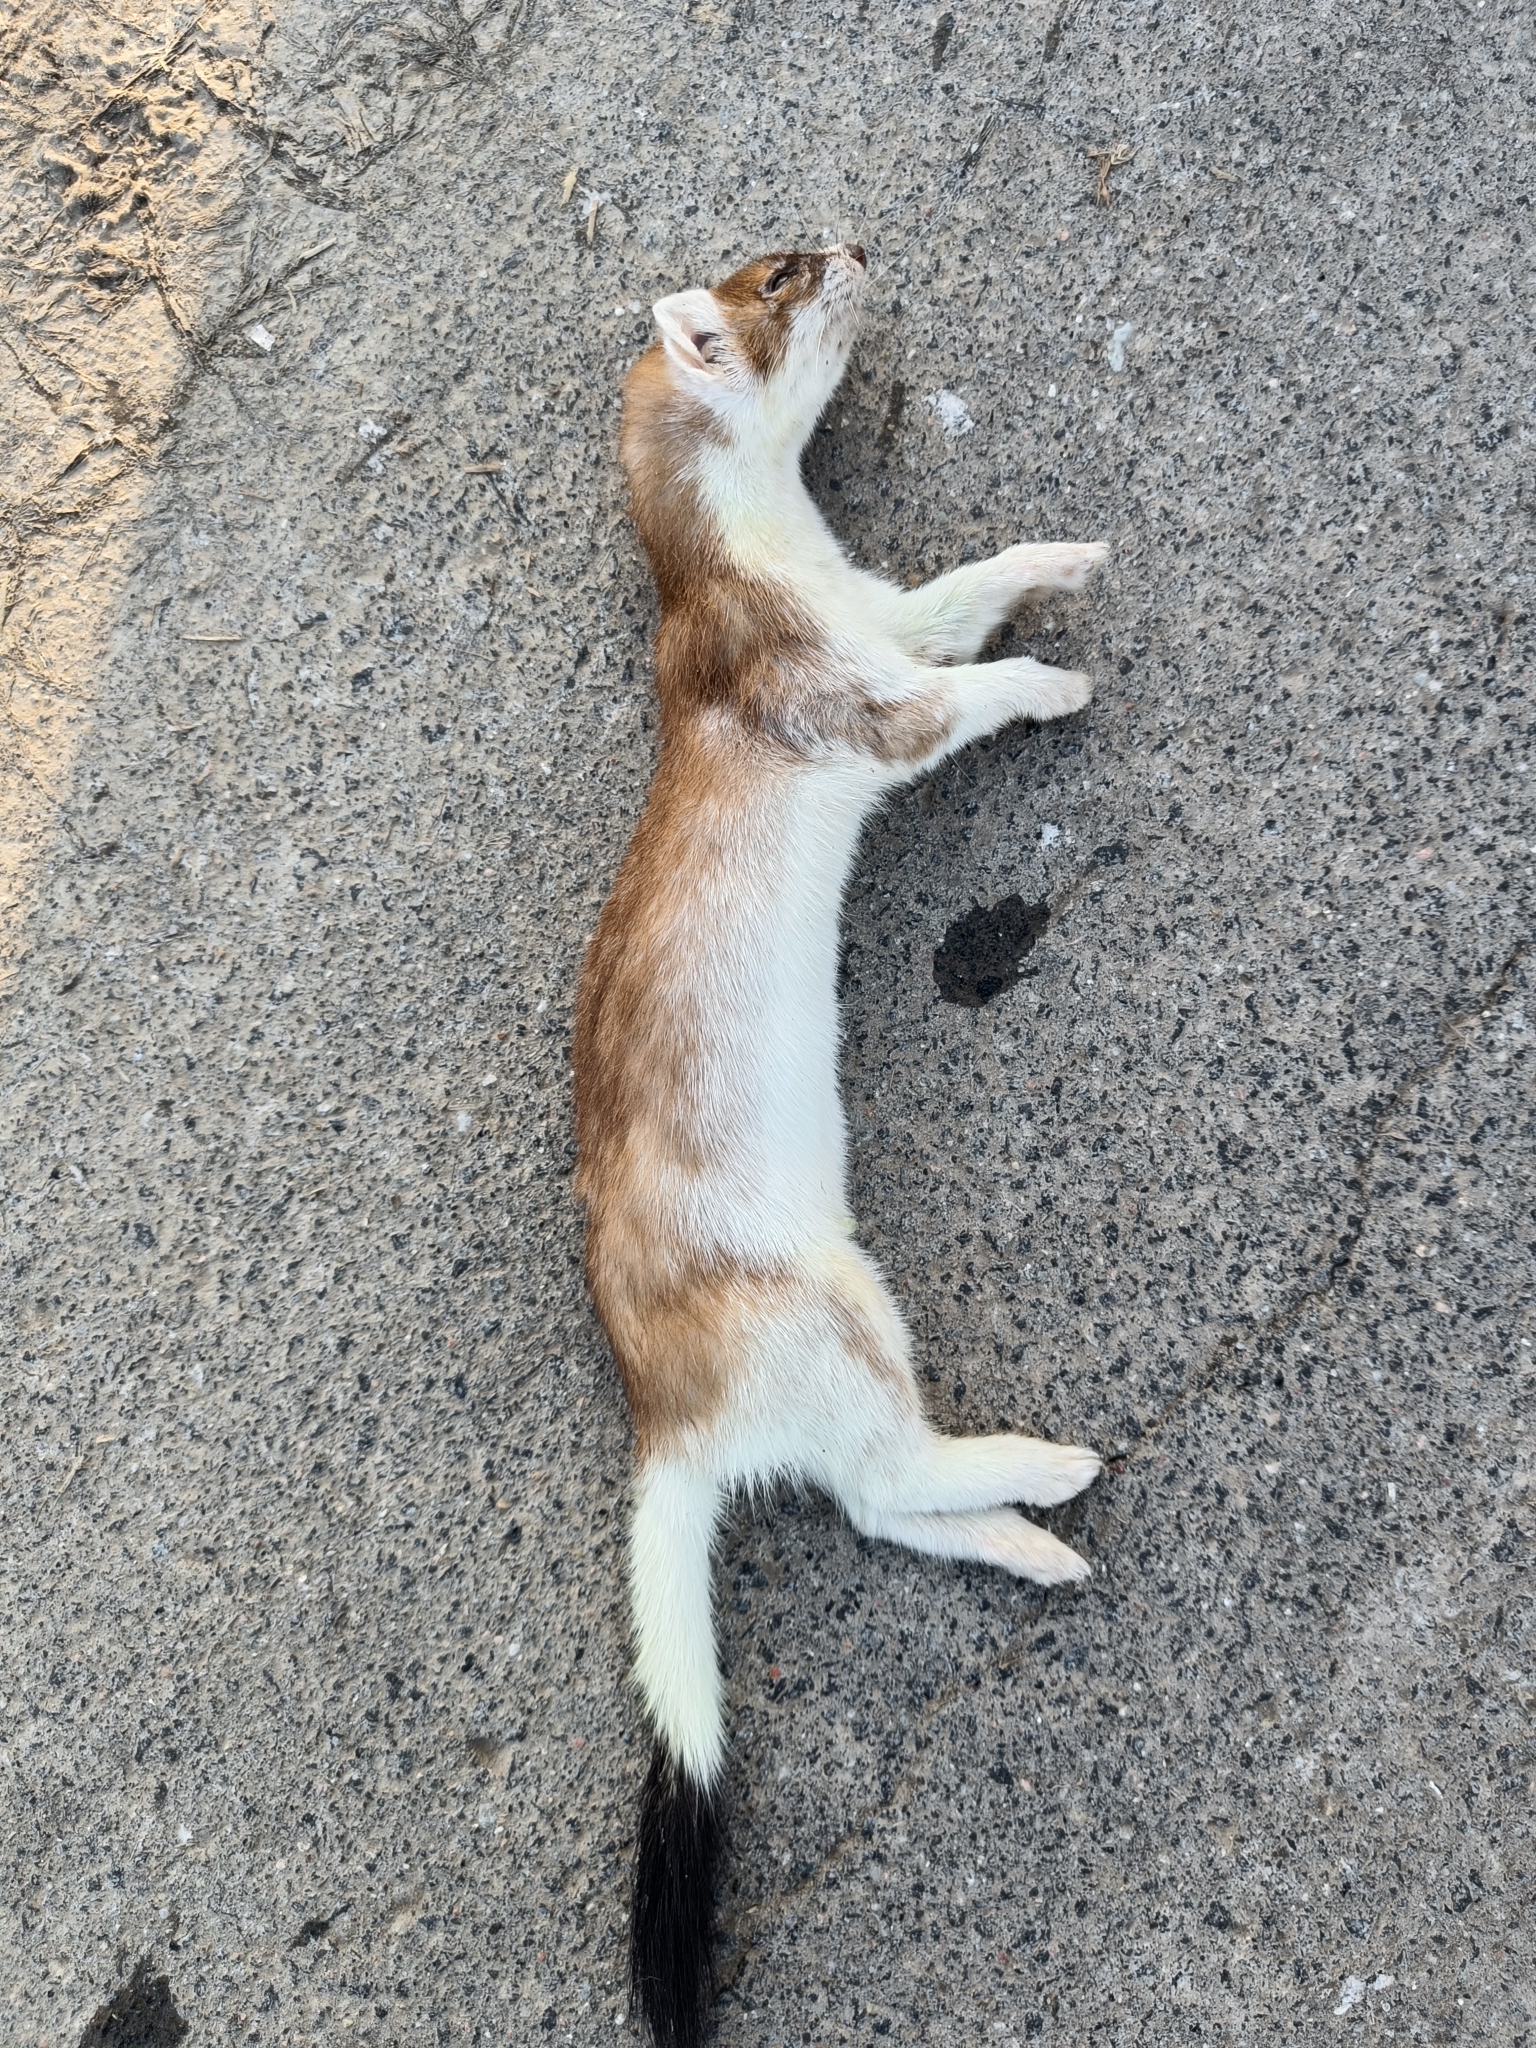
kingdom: Animalia
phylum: Chordata
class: Mammalia
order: Carnivora
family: Mustelidae
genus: Mustela
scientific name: Mustela erminea
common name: Stoat
